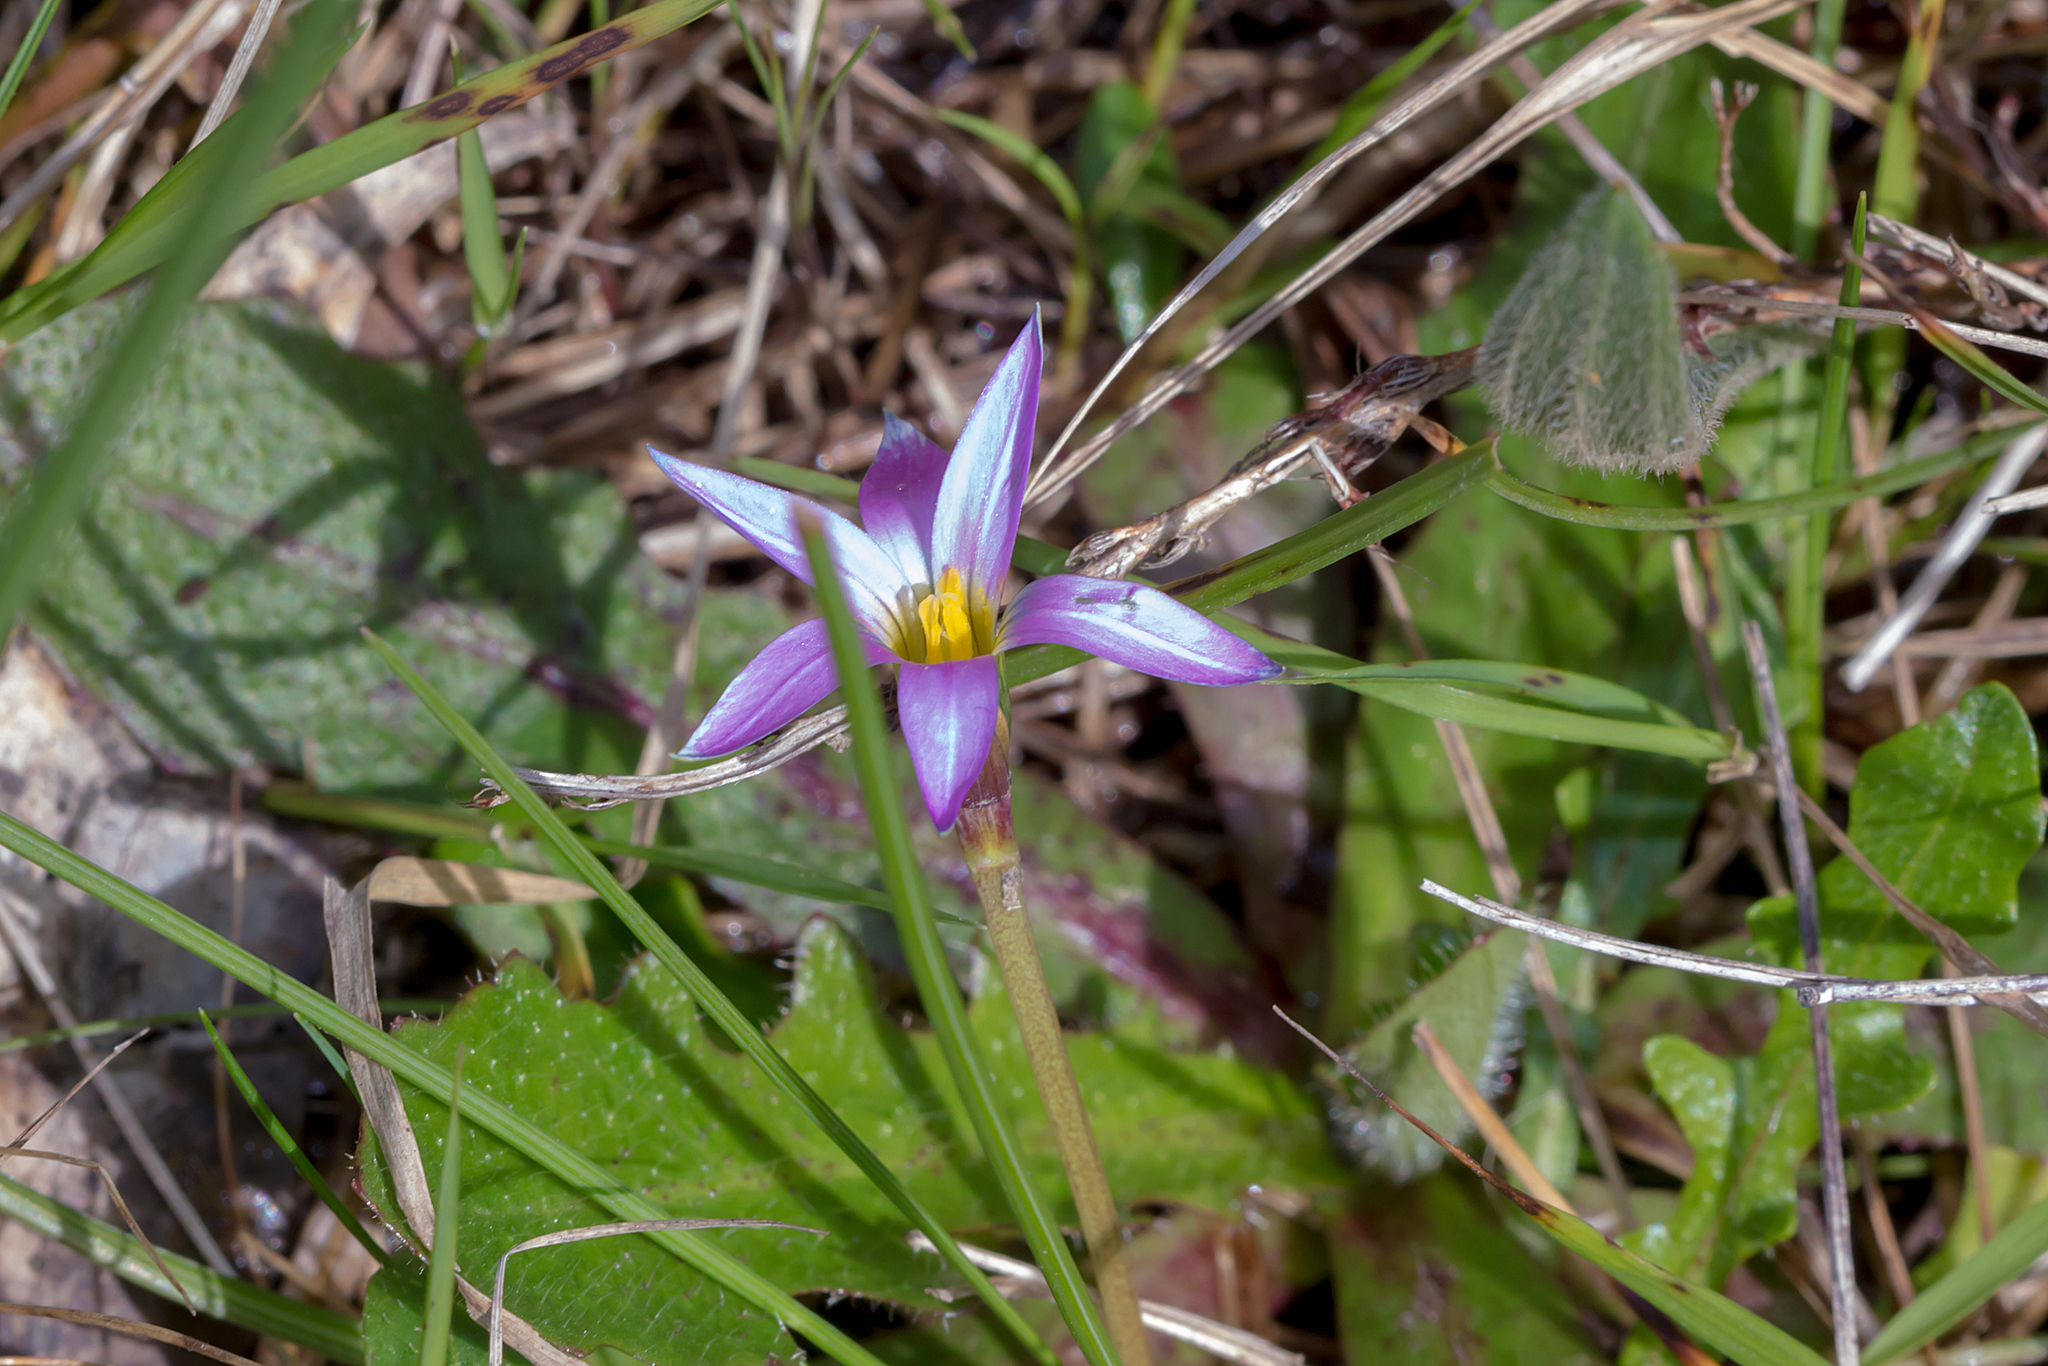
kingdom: Plantae
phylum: Tracheophyta
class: Liliopsida
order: Asparagales
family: Iridaceae
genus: Romulea
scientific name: Romulea rosea
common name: Oniongrass
